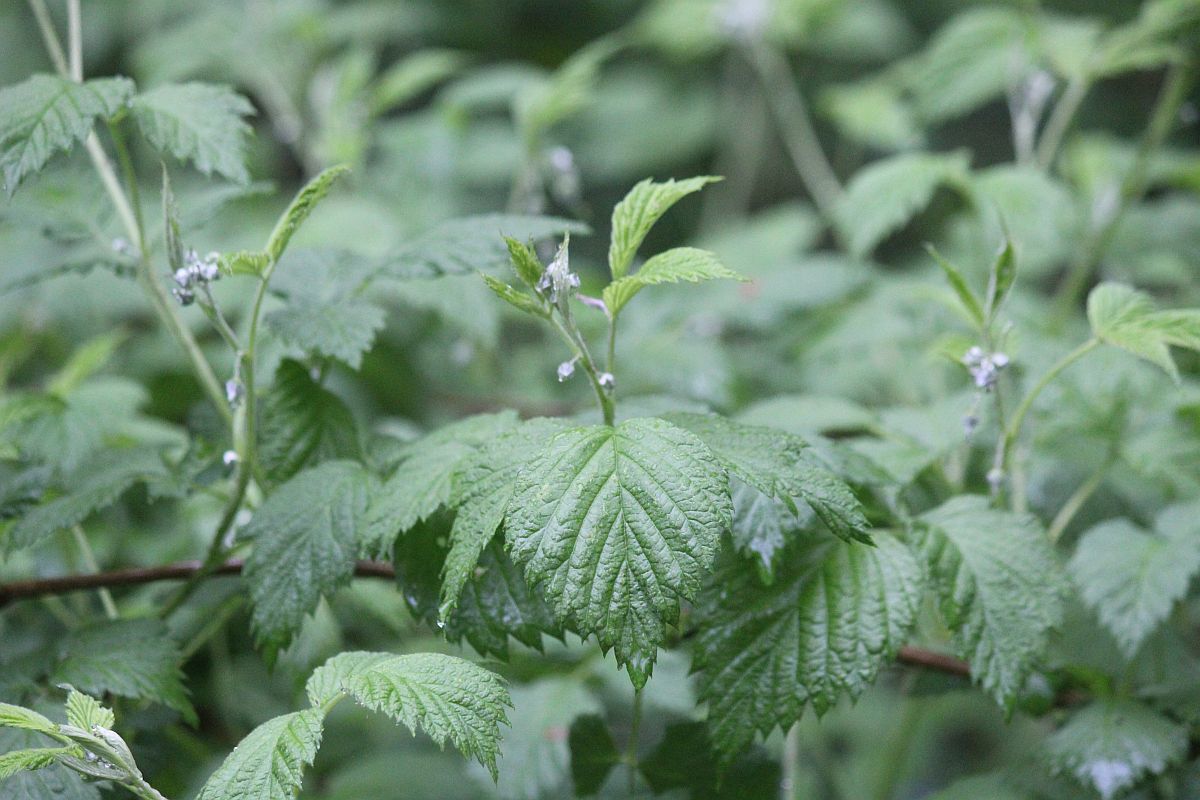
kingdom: Plantae
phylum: Tracheophyta
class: Magnoliopsida
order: Rosales
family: Rosaceae
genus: Rubus
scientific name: Rubus idaeus
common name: Raspberry
